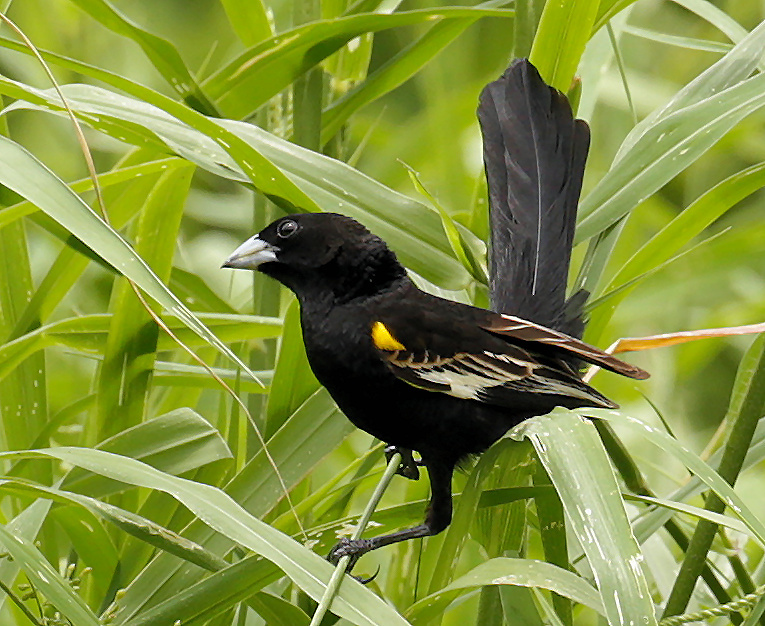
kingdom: Animalia
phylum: Chordata
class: Aves
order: Passeriformes
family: Ploceidae
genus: Euplectes
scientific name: Euplectes albonotatus
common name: White-winged widowbird
